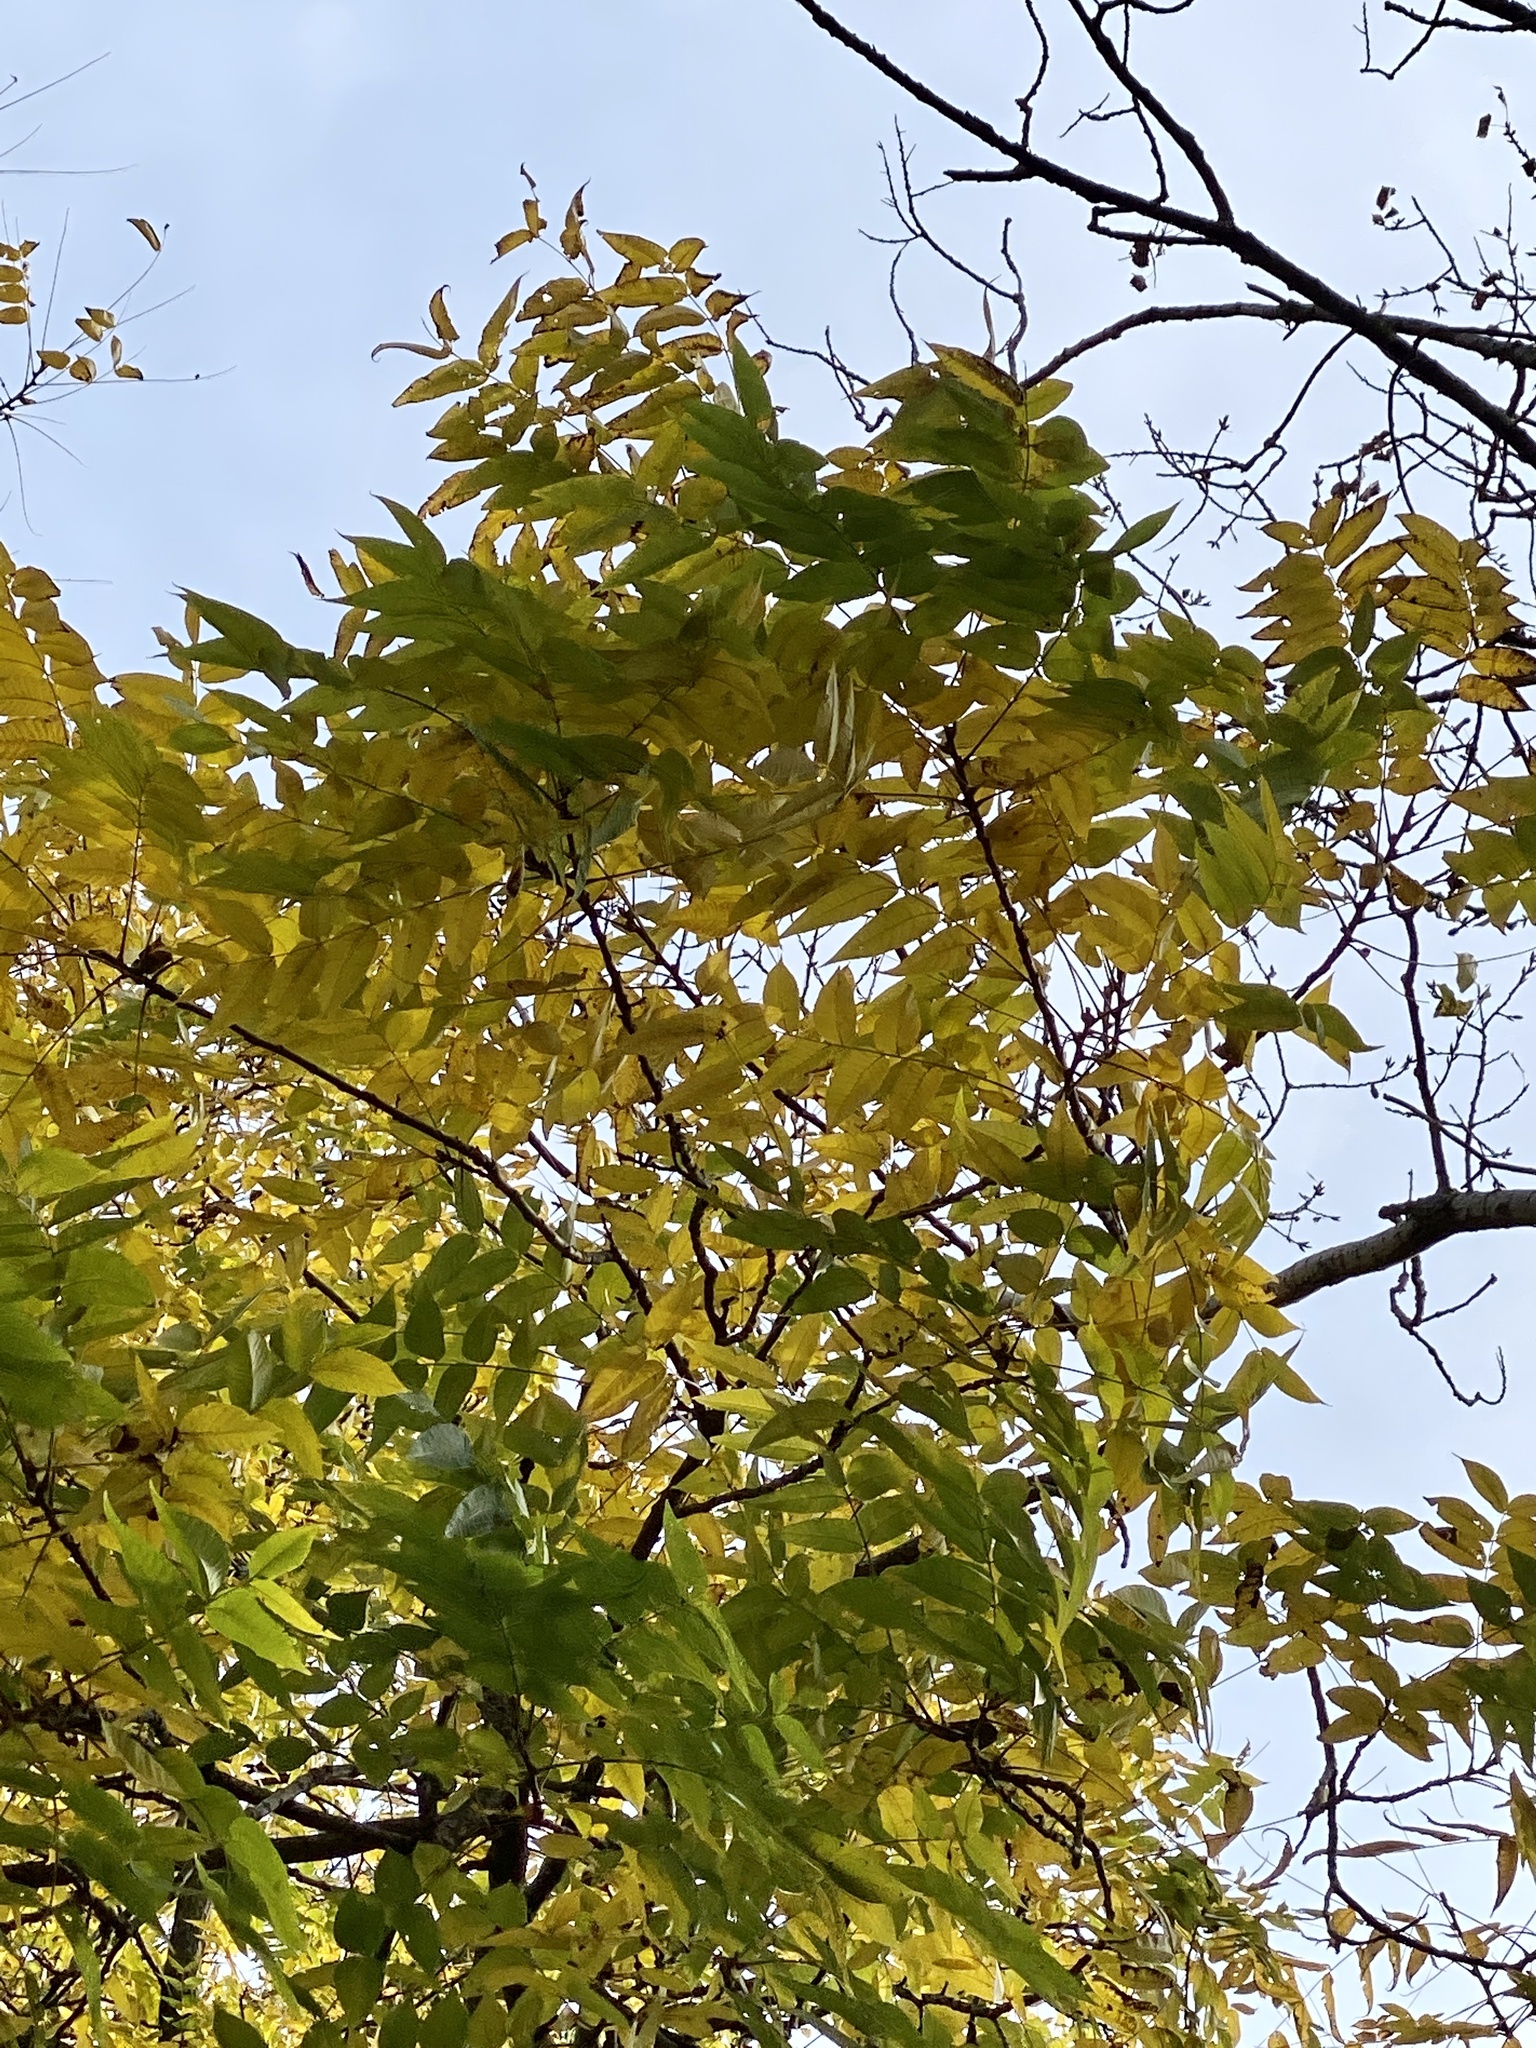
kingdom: Plantae
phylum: Tracheophyta
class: Magnoliopsida
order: Fagales
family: Juglandaceae
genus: Juglans
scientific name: Juglans nigra
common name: Black walnut
